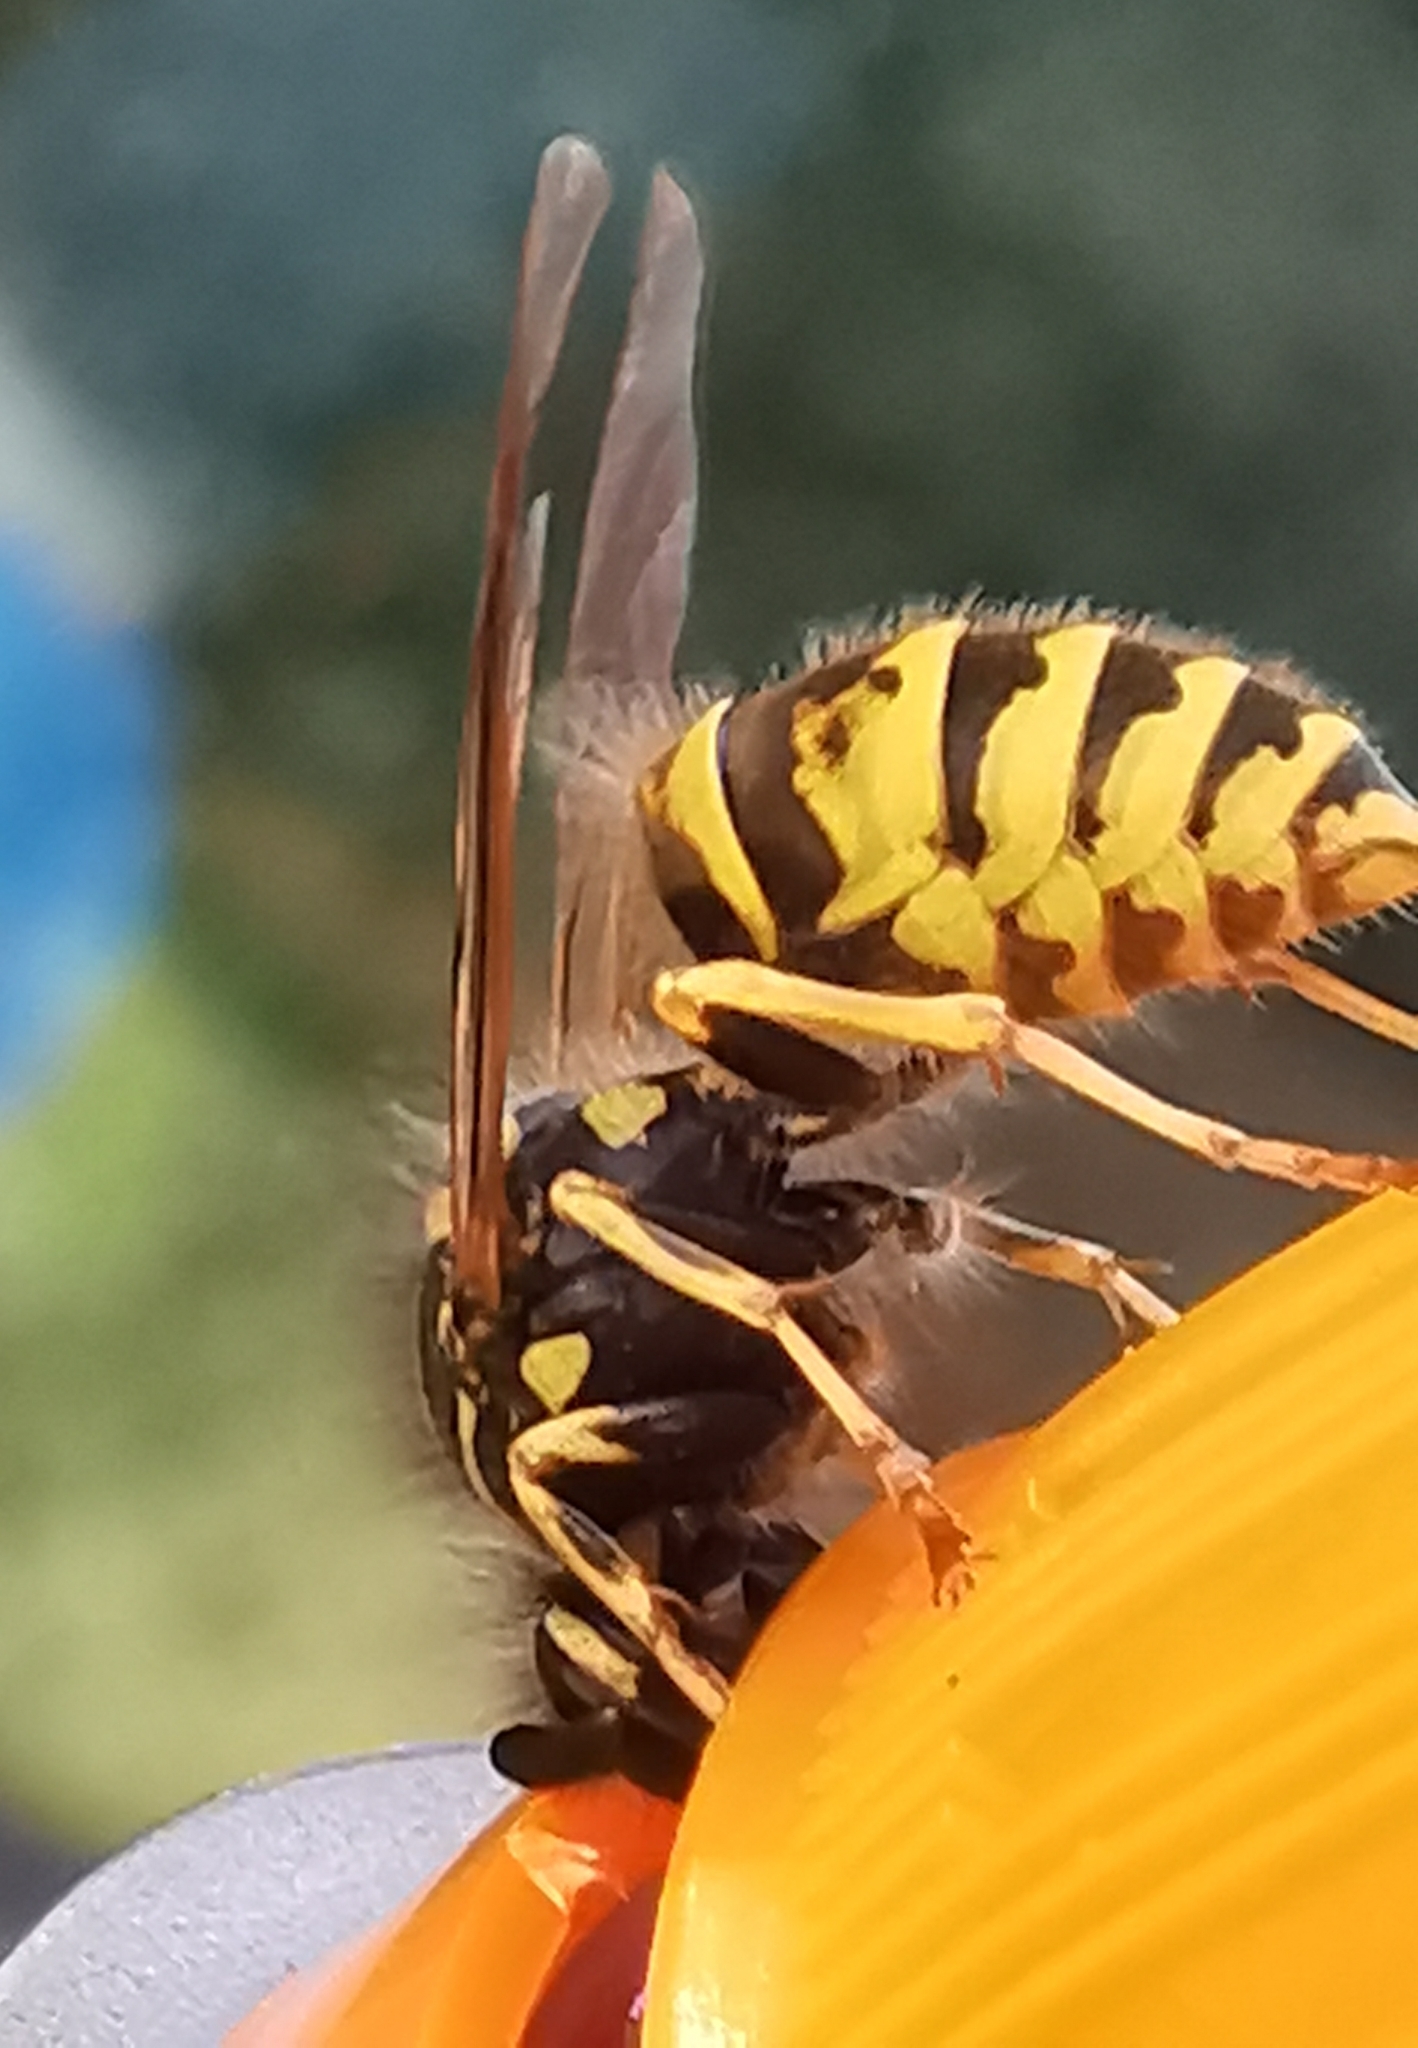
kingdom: Animalia
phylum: Arthropoda
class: Insecta
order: Hymenoptera
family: Vespidae
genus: Vespula
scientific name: Vespula vulgaris
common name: Common wasp
